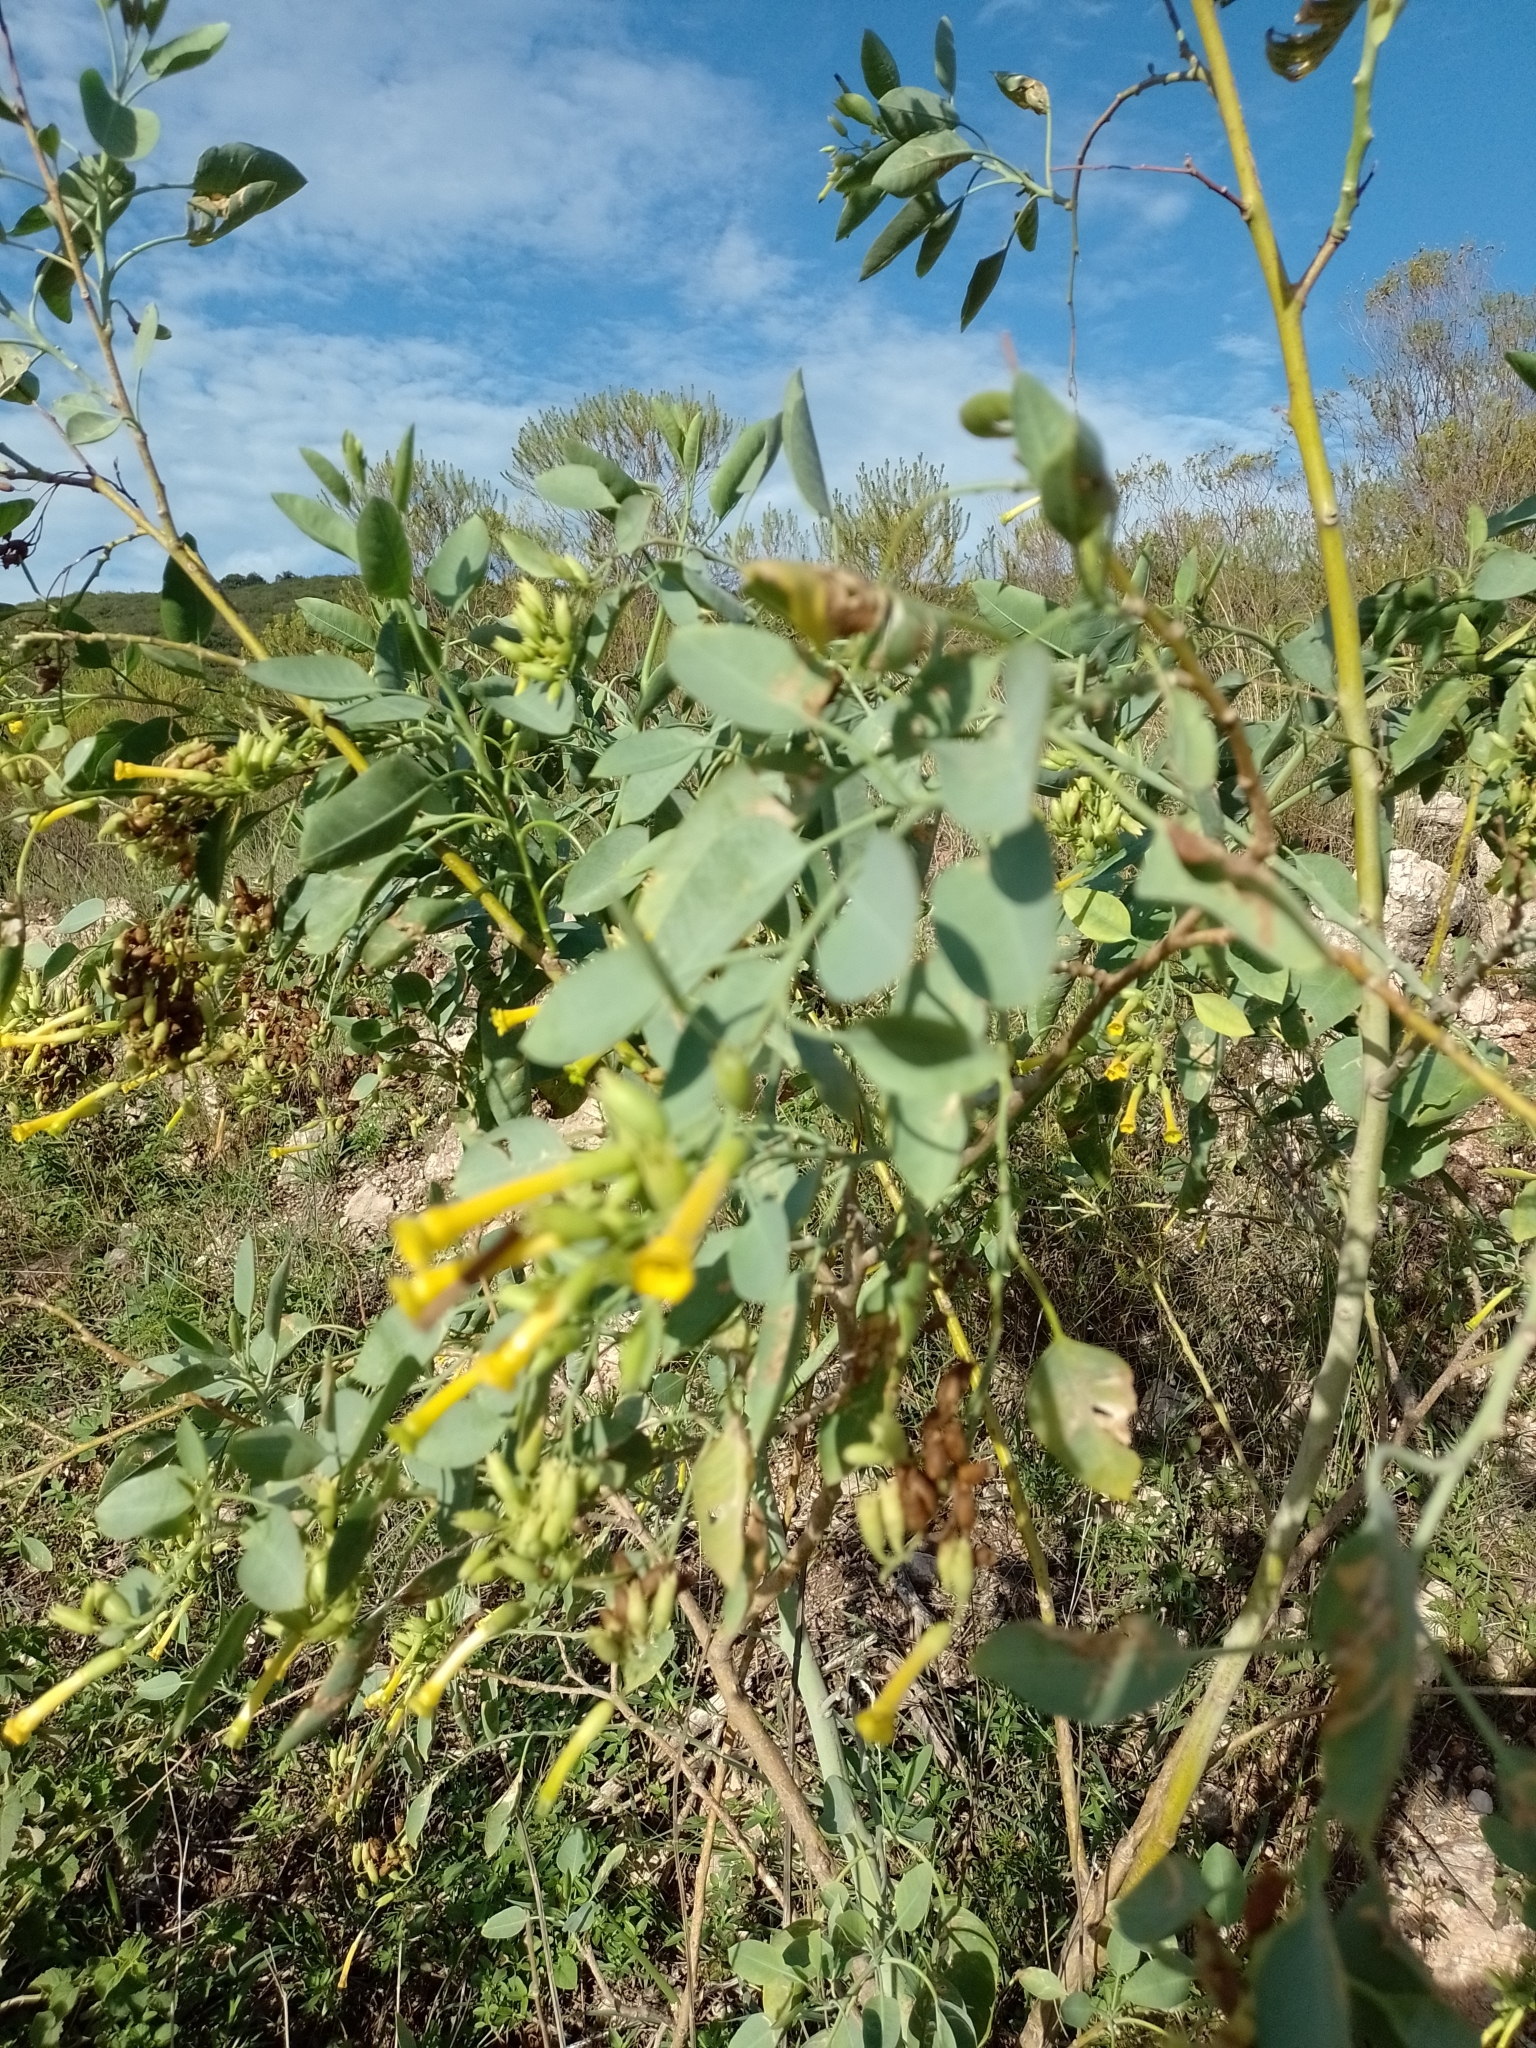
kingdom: Plantae
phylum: Tracheophyta
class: Magnoliopsida
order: Solanales
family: Solanaceae
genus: Nicotiana
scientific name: Nicotiana glauca
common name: Tree tobacco
